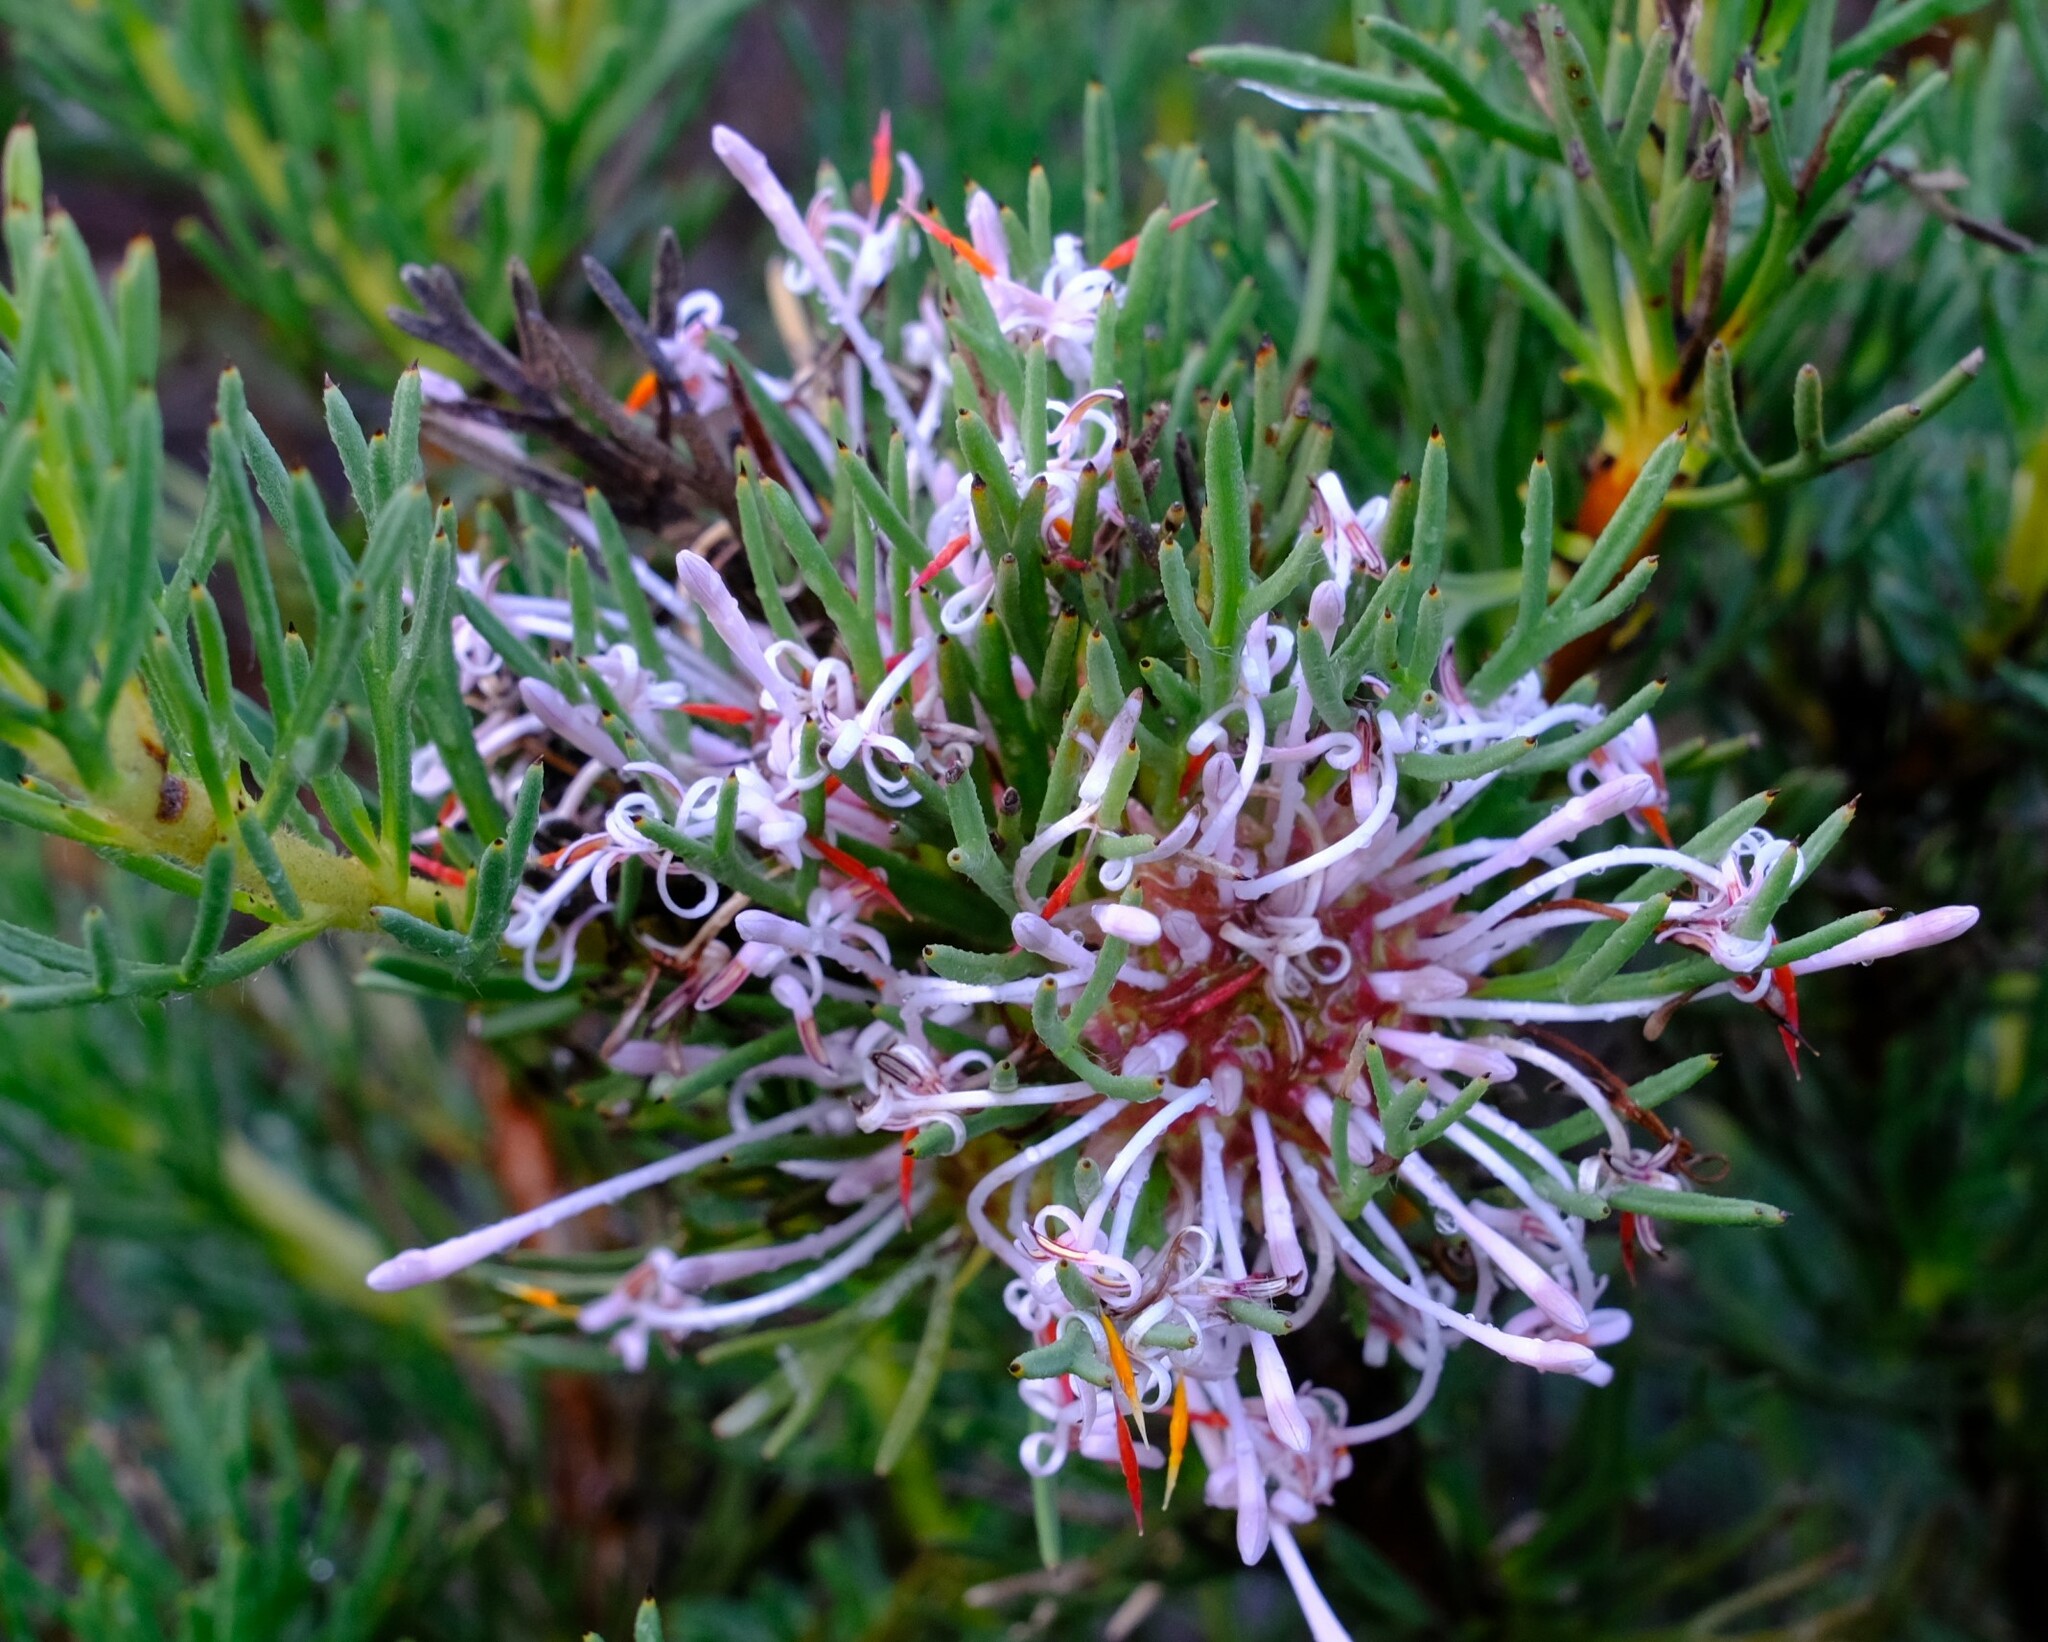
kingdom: Plantae
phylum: Tracheophyta
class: Magnoliopsida
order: Proteales
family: Proteaceae
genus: Isopogon
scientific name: Isopogon asper
